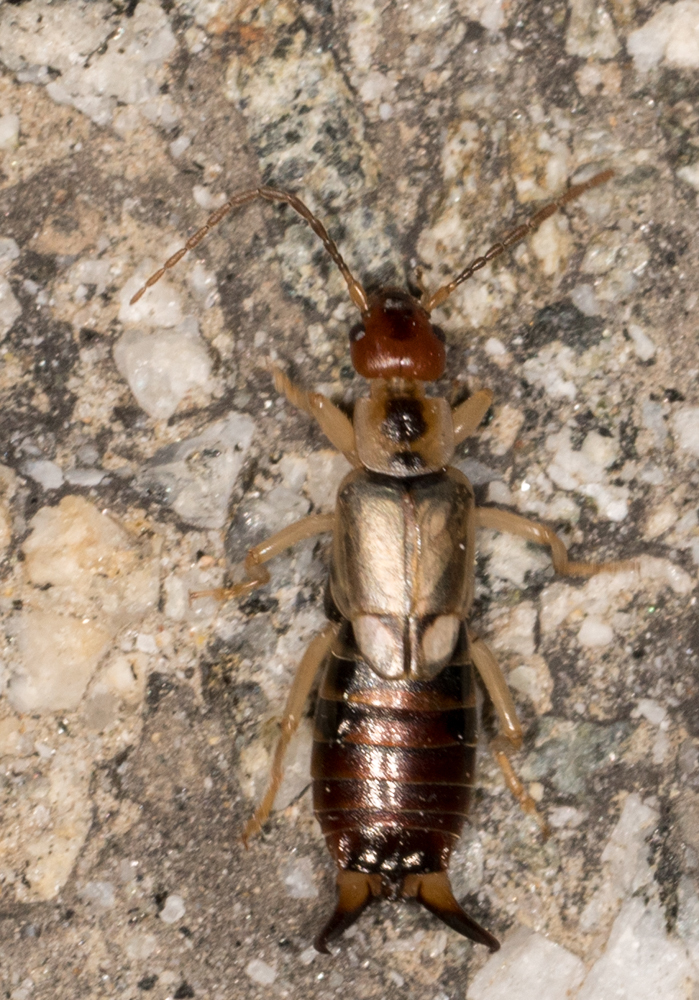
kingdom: Animalia
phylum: Arthropoda
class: Insecta
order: Dermaptera
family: Forficulidae
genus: Forficula
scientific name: Forficula
